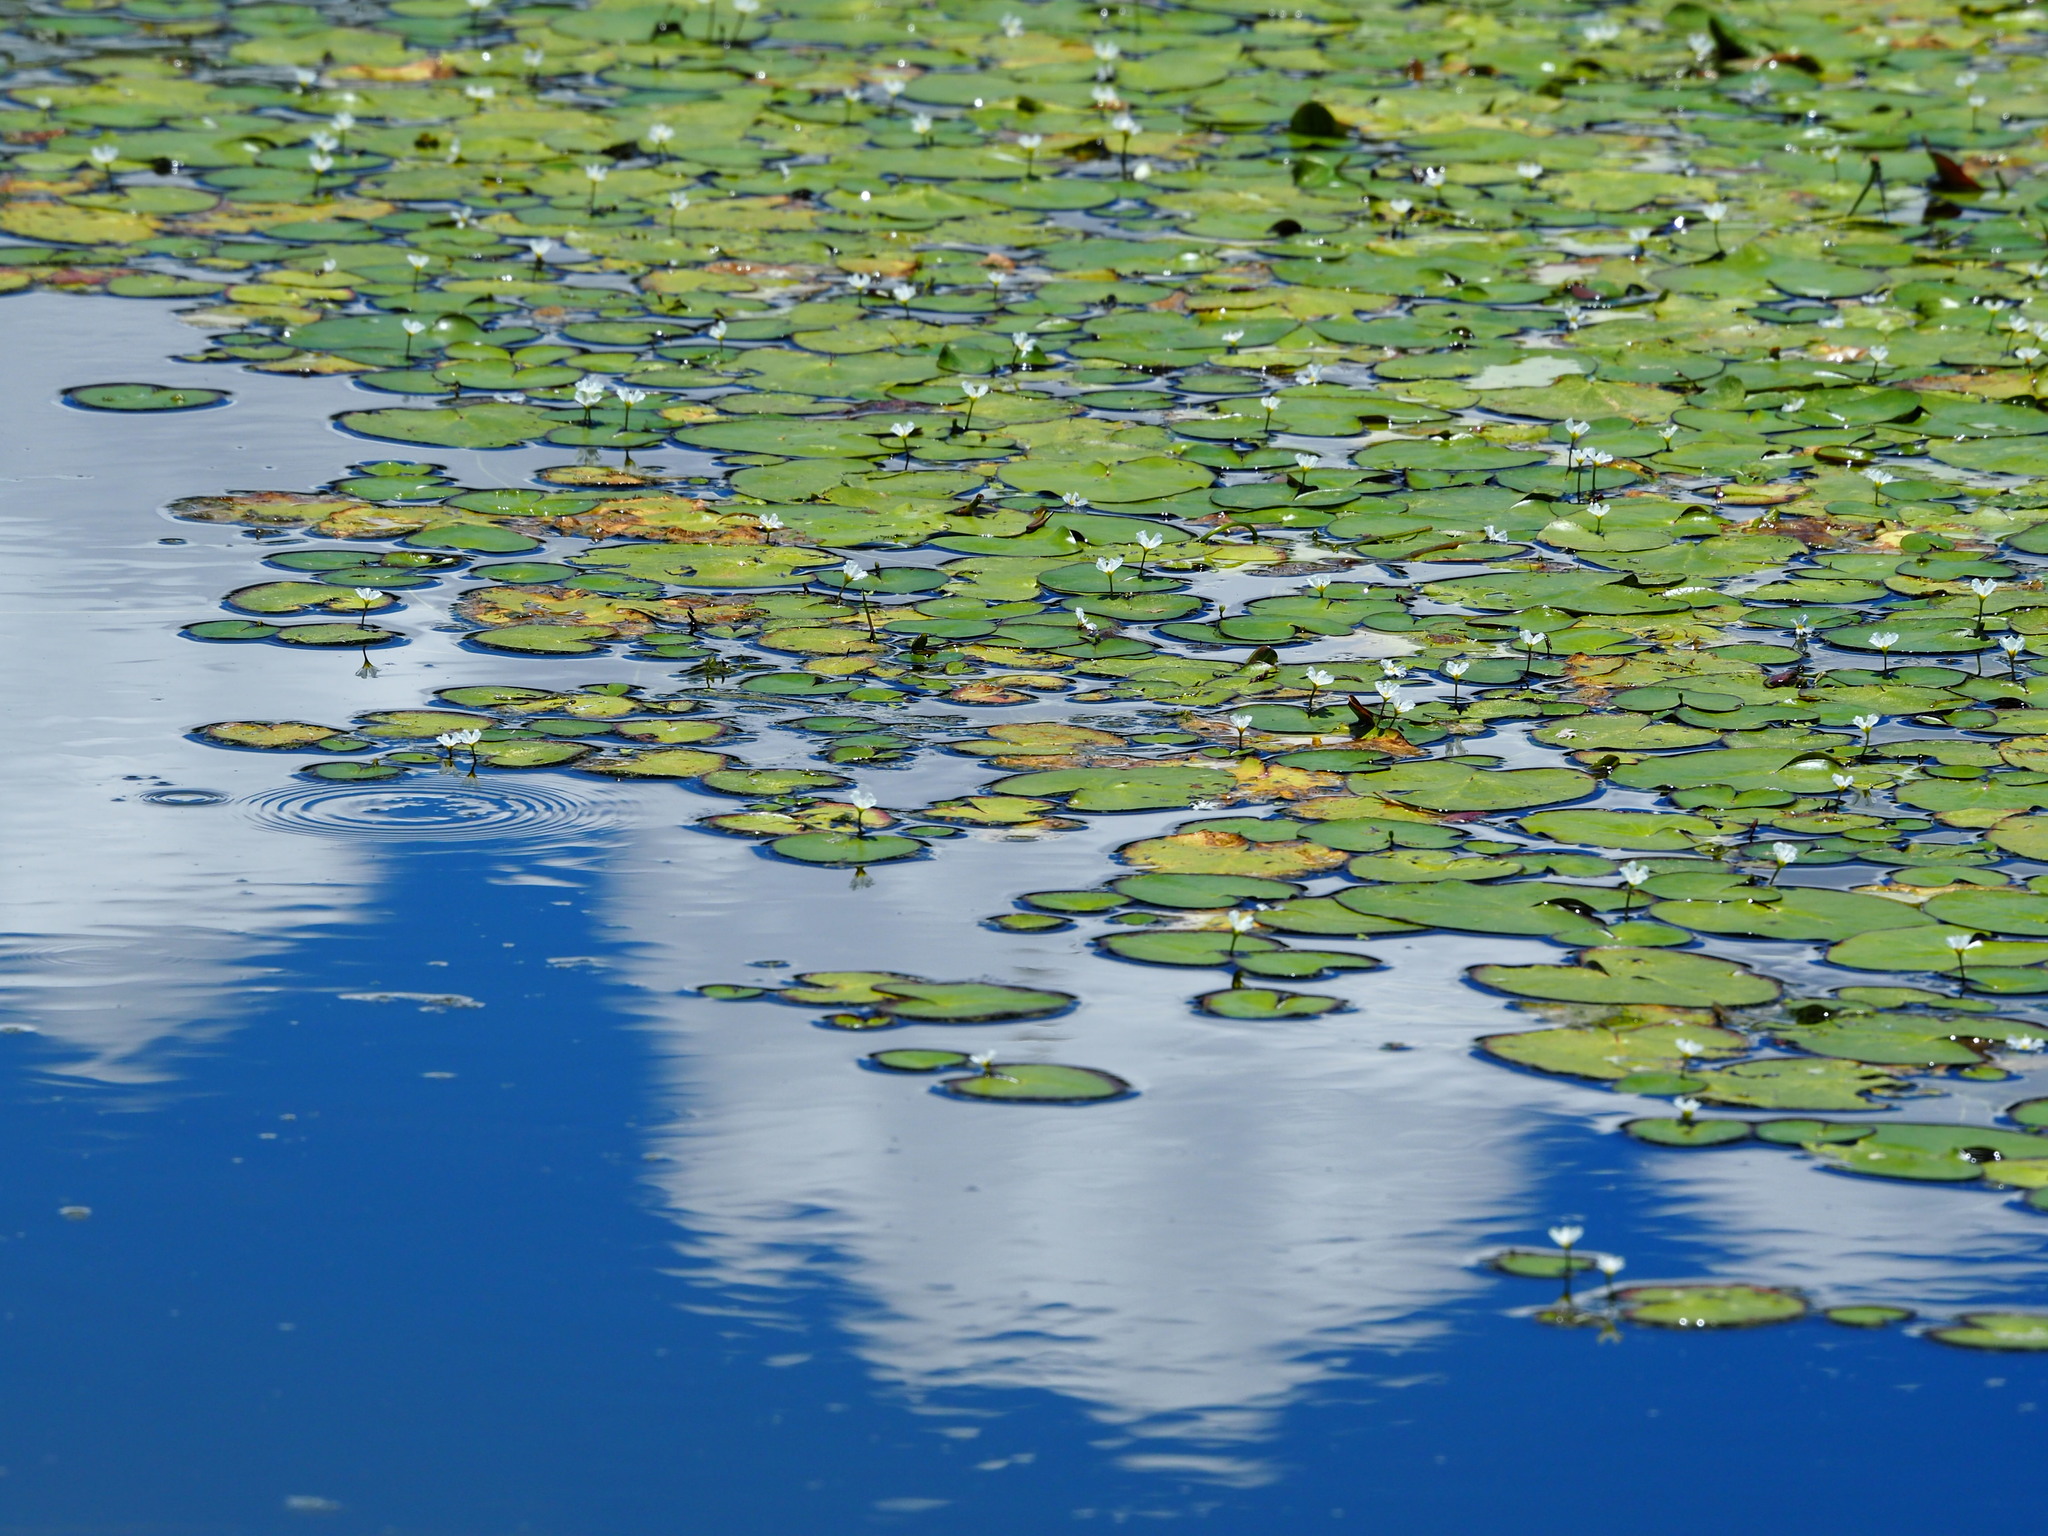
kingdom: Plantae
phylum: Tracheophyta
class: Magnoliopsida
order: Asterales
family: Menyanthaceae
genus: Nymphoides
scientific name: Nymphoides hydrophylla
